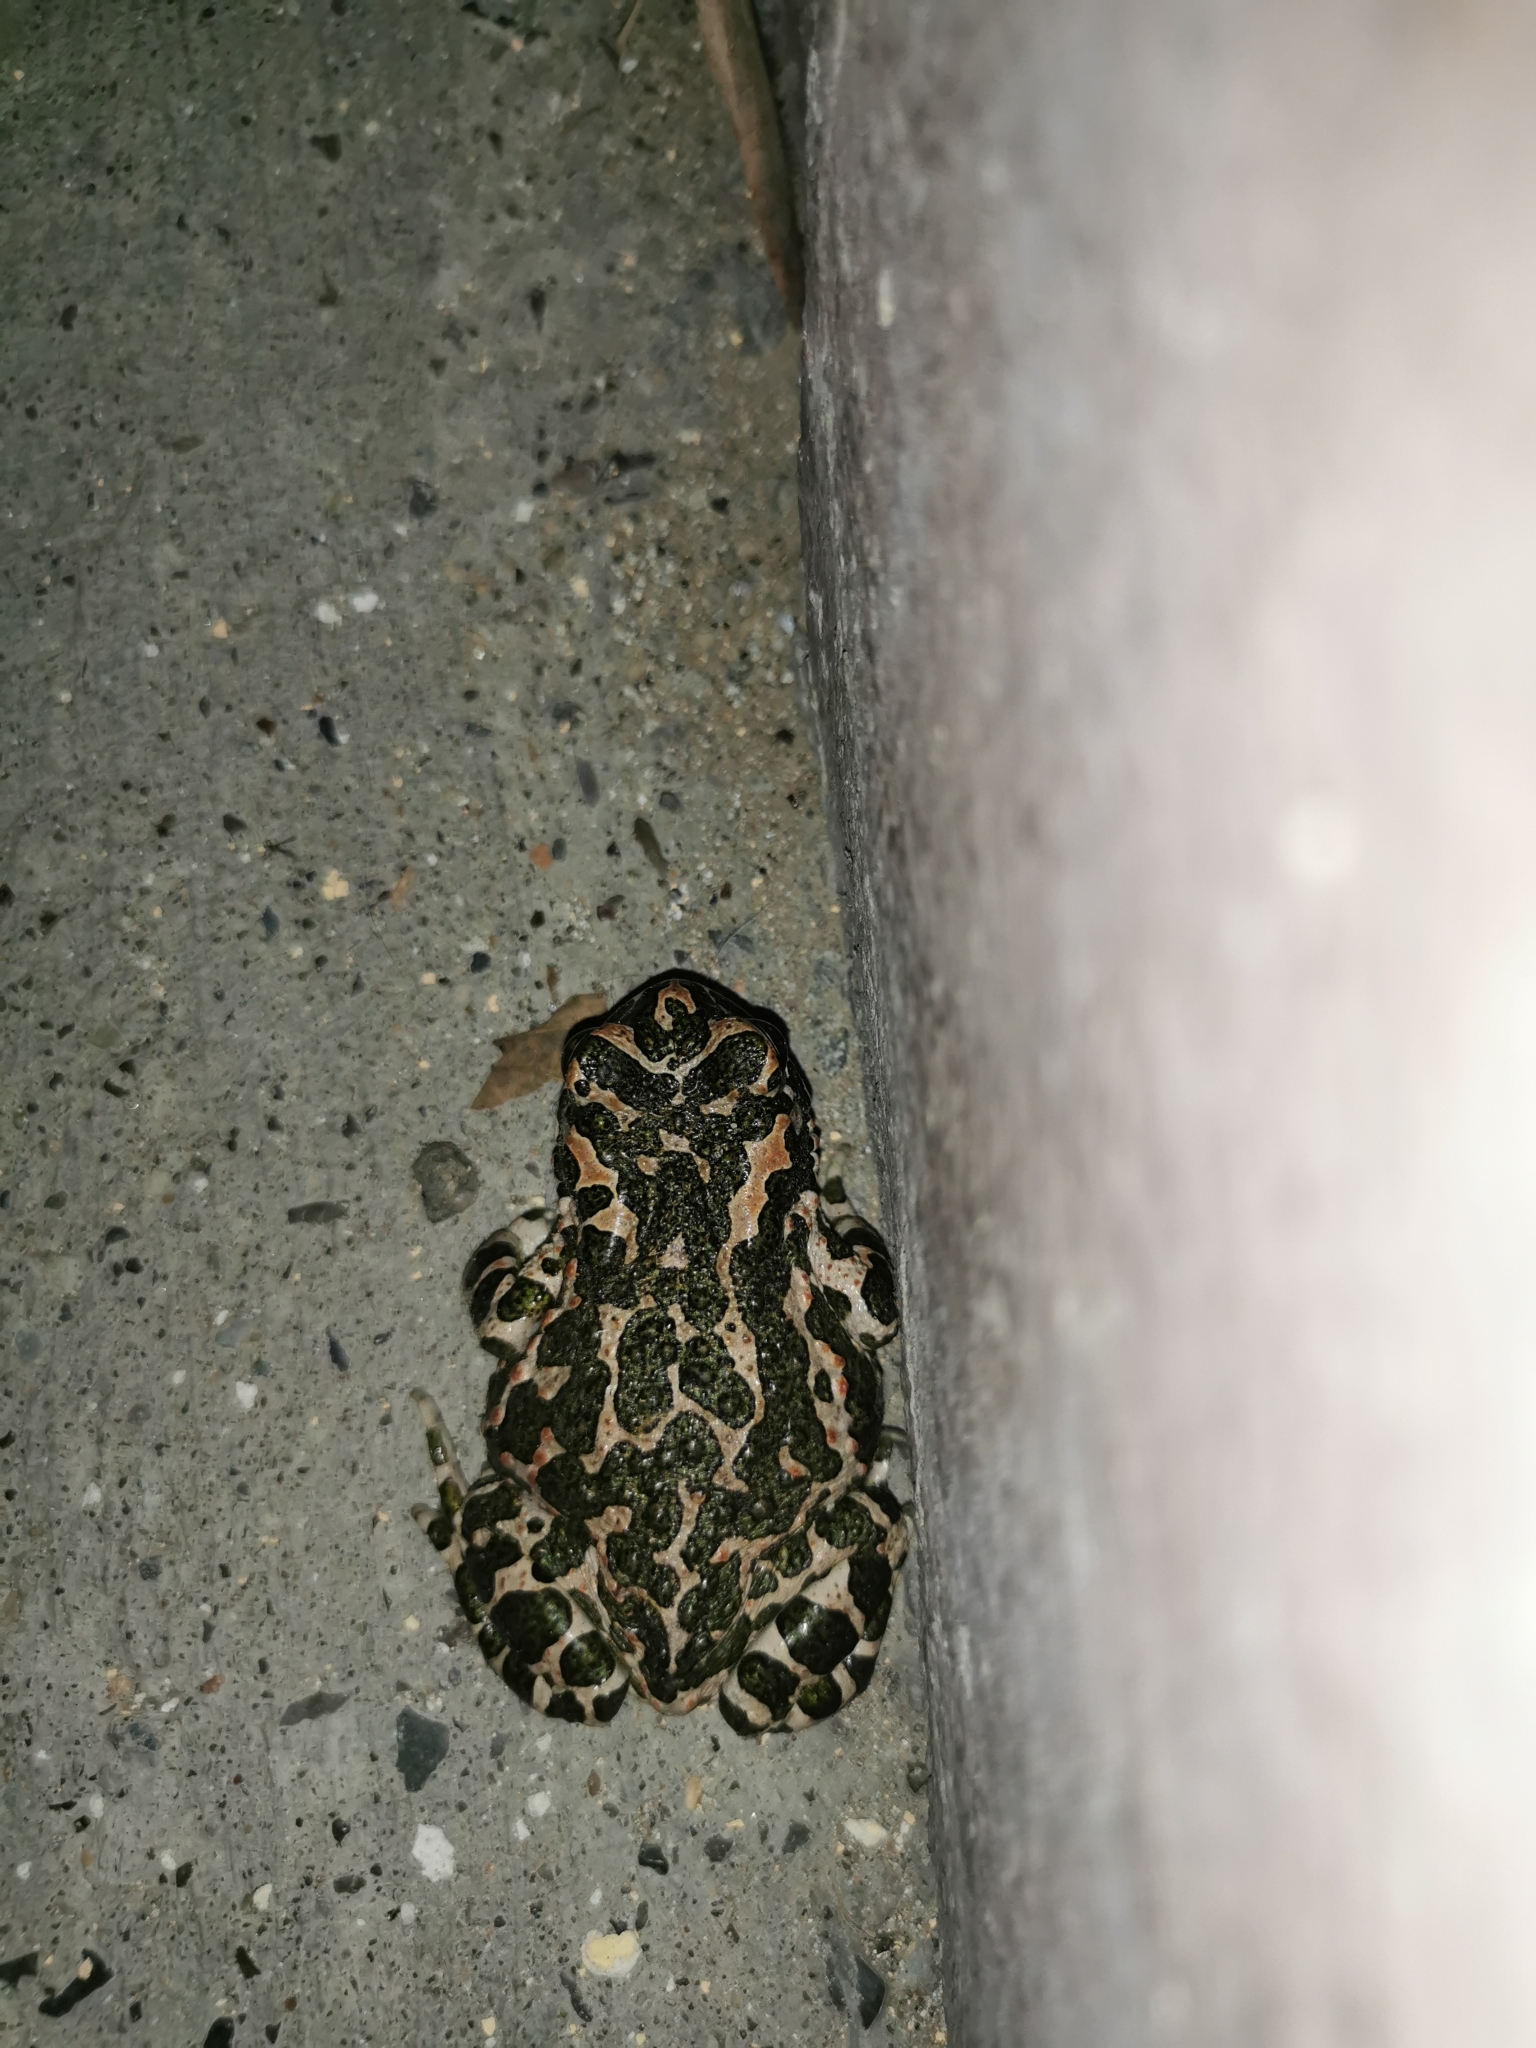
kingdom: Animalia
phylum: Chordata
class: Amphibia
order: Anura
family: Bufonidae
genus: Bufotes
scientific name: Bufotes viridis
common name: European green toad
